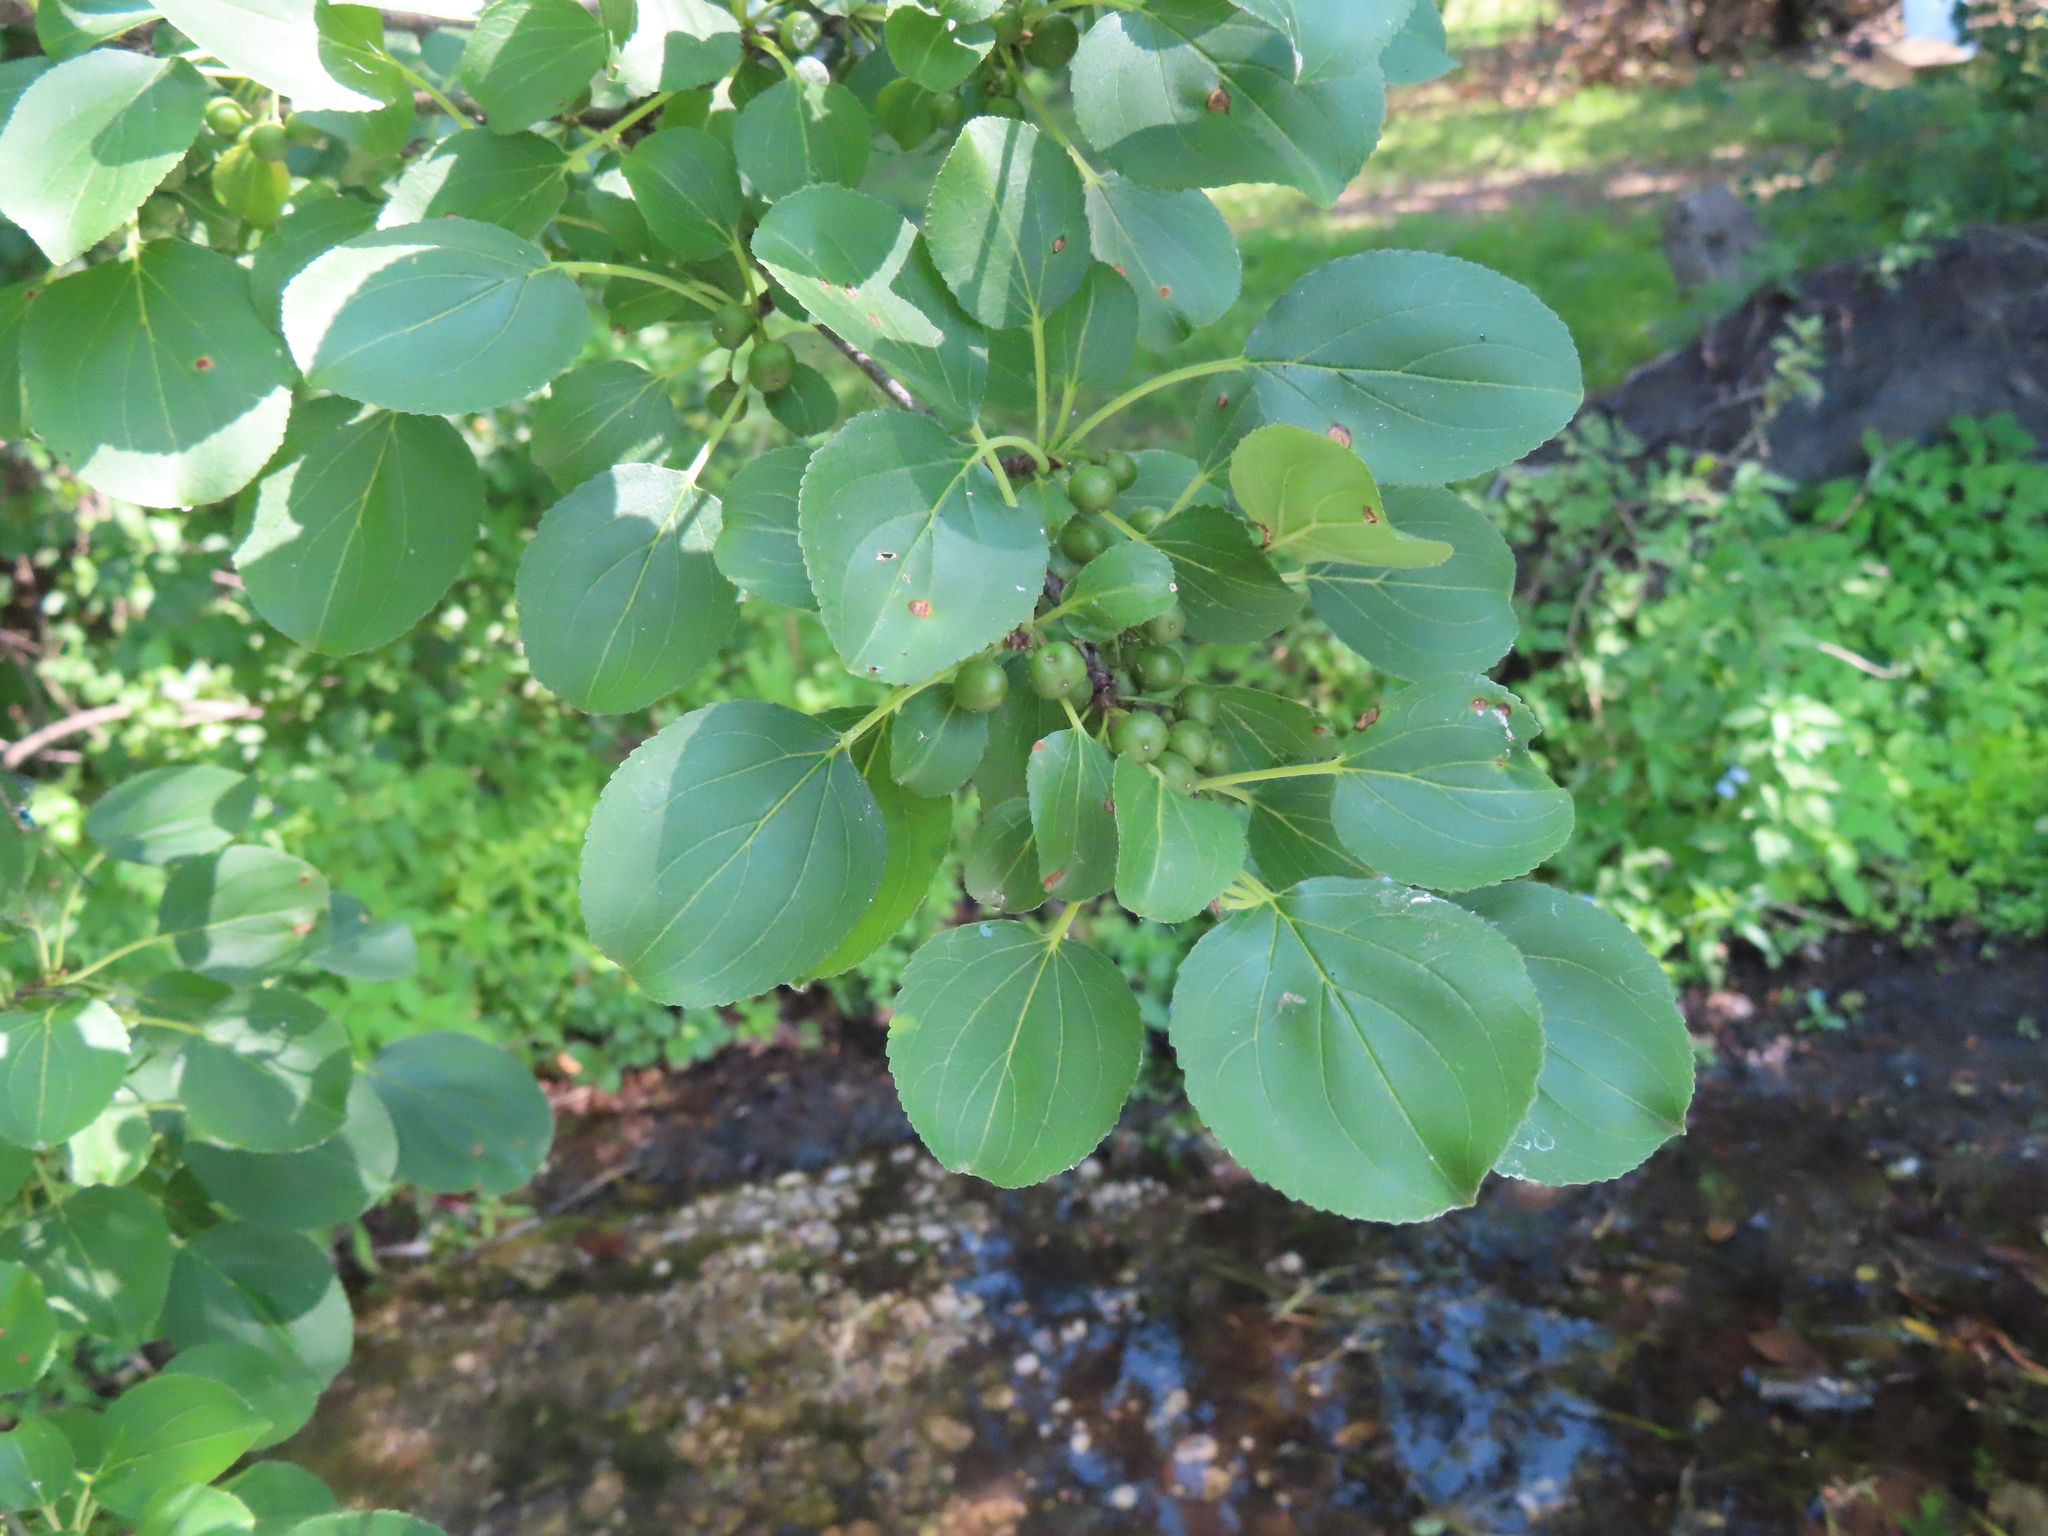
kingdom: Plantae
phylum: Tracheophyta
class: Magnoliopsida
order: Rosales
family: Rhamnaceae
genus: Rhamnus
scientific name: Rhamnus cathartica
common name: Common buckthorn
